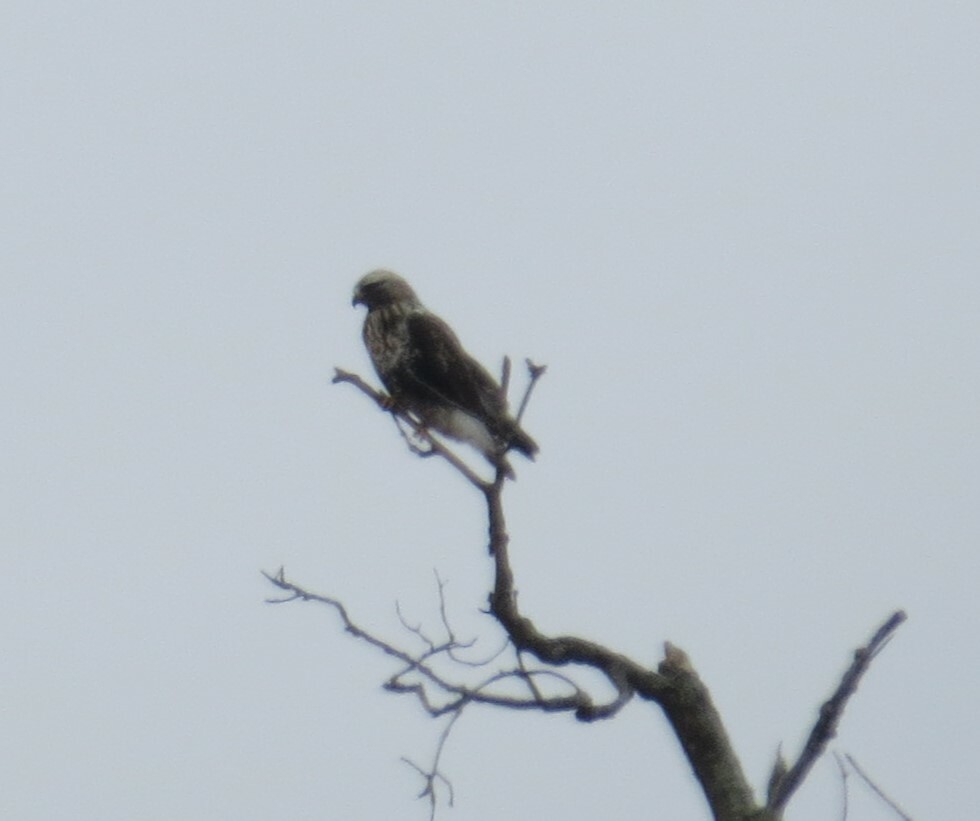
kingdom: Animalia
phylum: Chordata
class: Aves
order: Accipitriformes
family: Accipitridae
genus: Buteo
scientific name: Buteo lagopus
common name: Rough-legged buzzard
